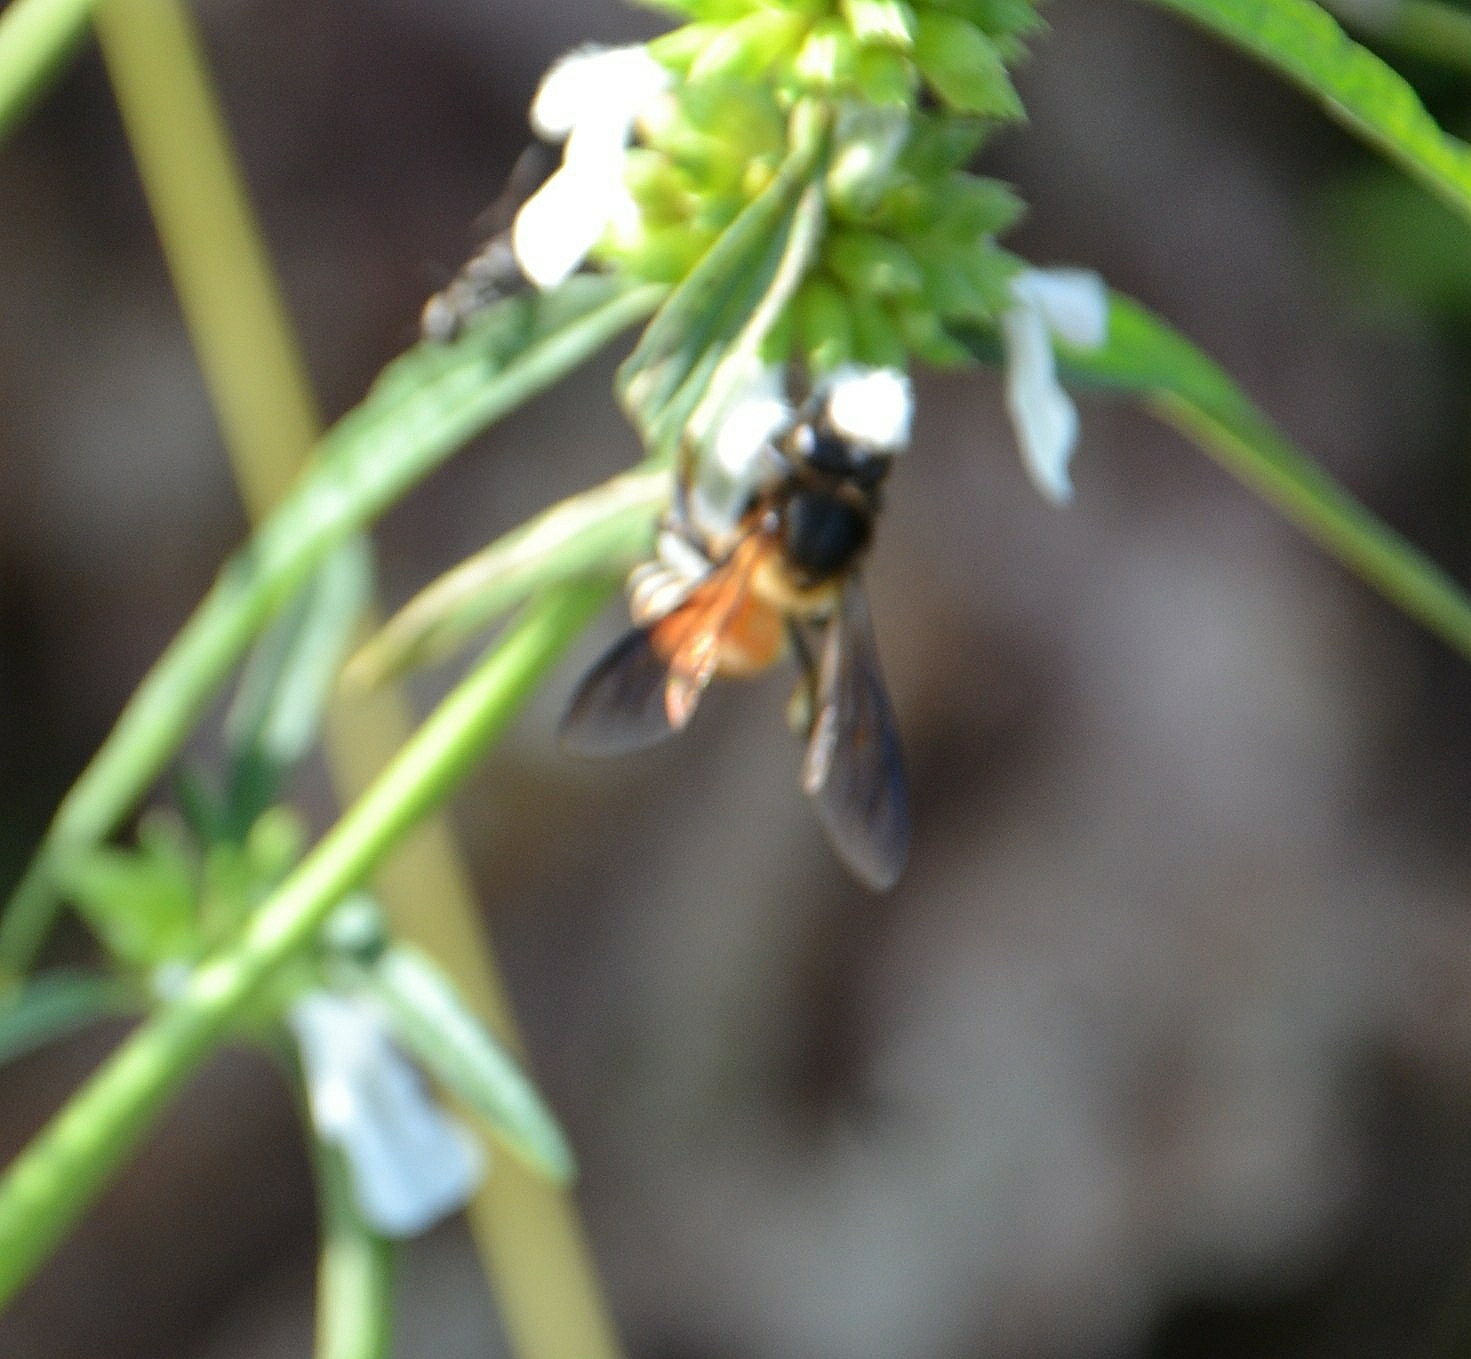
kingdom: Animalia
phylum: Arthropoda
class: Insecta
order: Hymenoptera
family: Apidae
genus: Apis
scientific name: Apis dorsata
